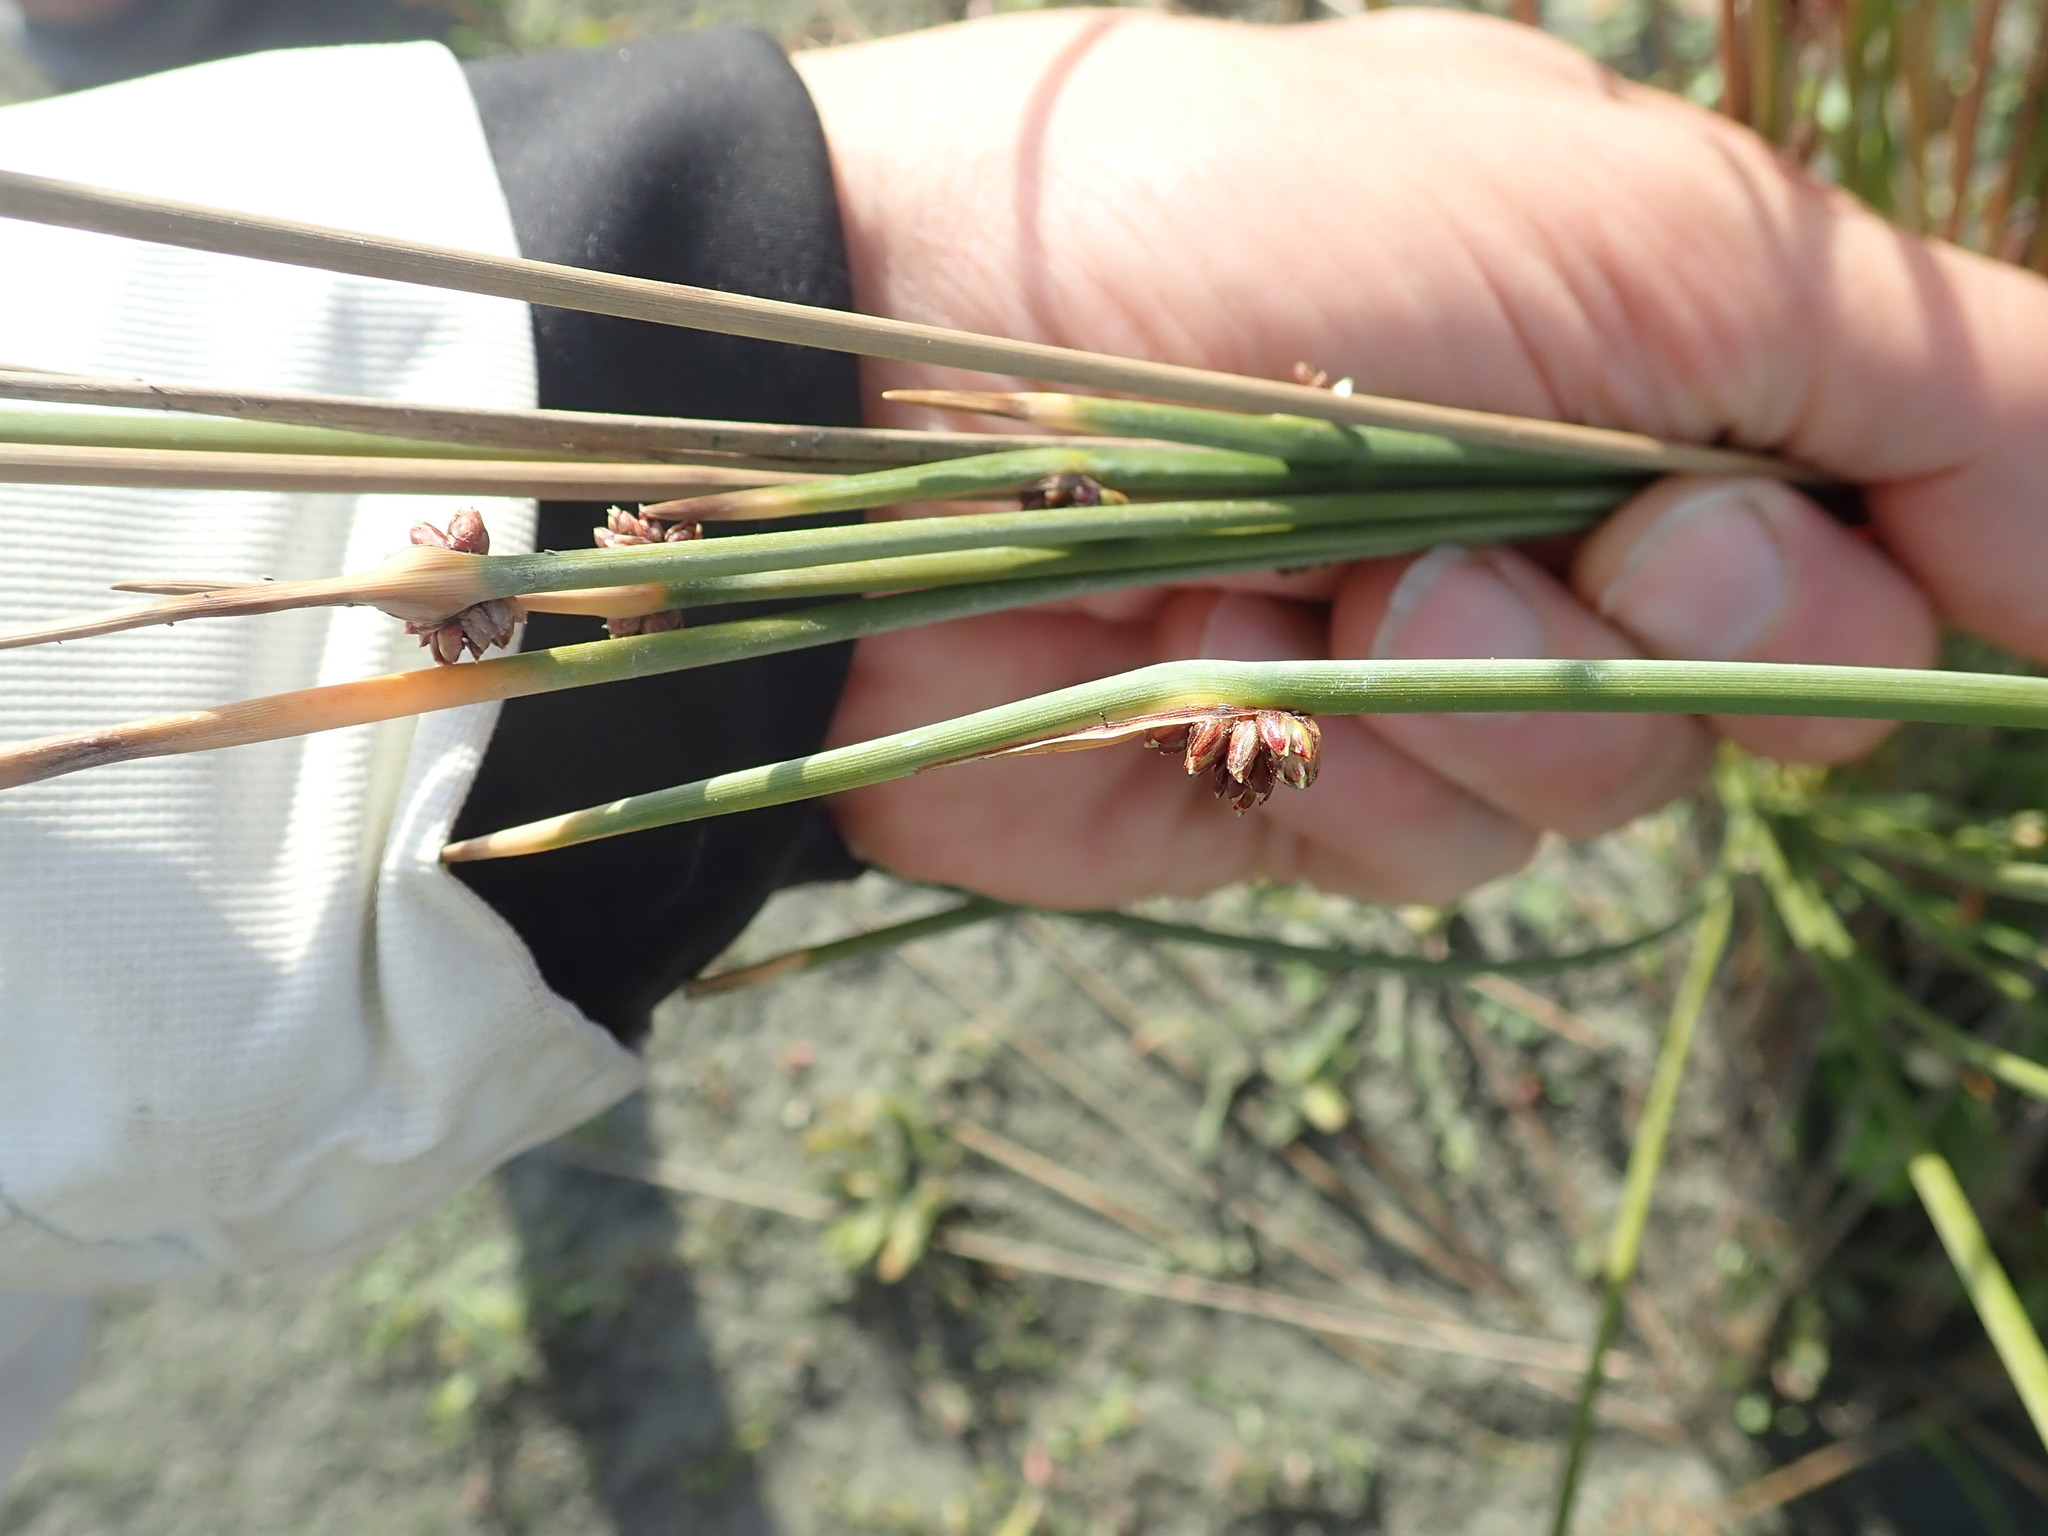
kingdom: Plantae
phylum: Tracheophyta
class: Liliopsida
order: Poales
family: Cyperaceae
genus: Ficinia
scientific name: Ficinia nodosa
